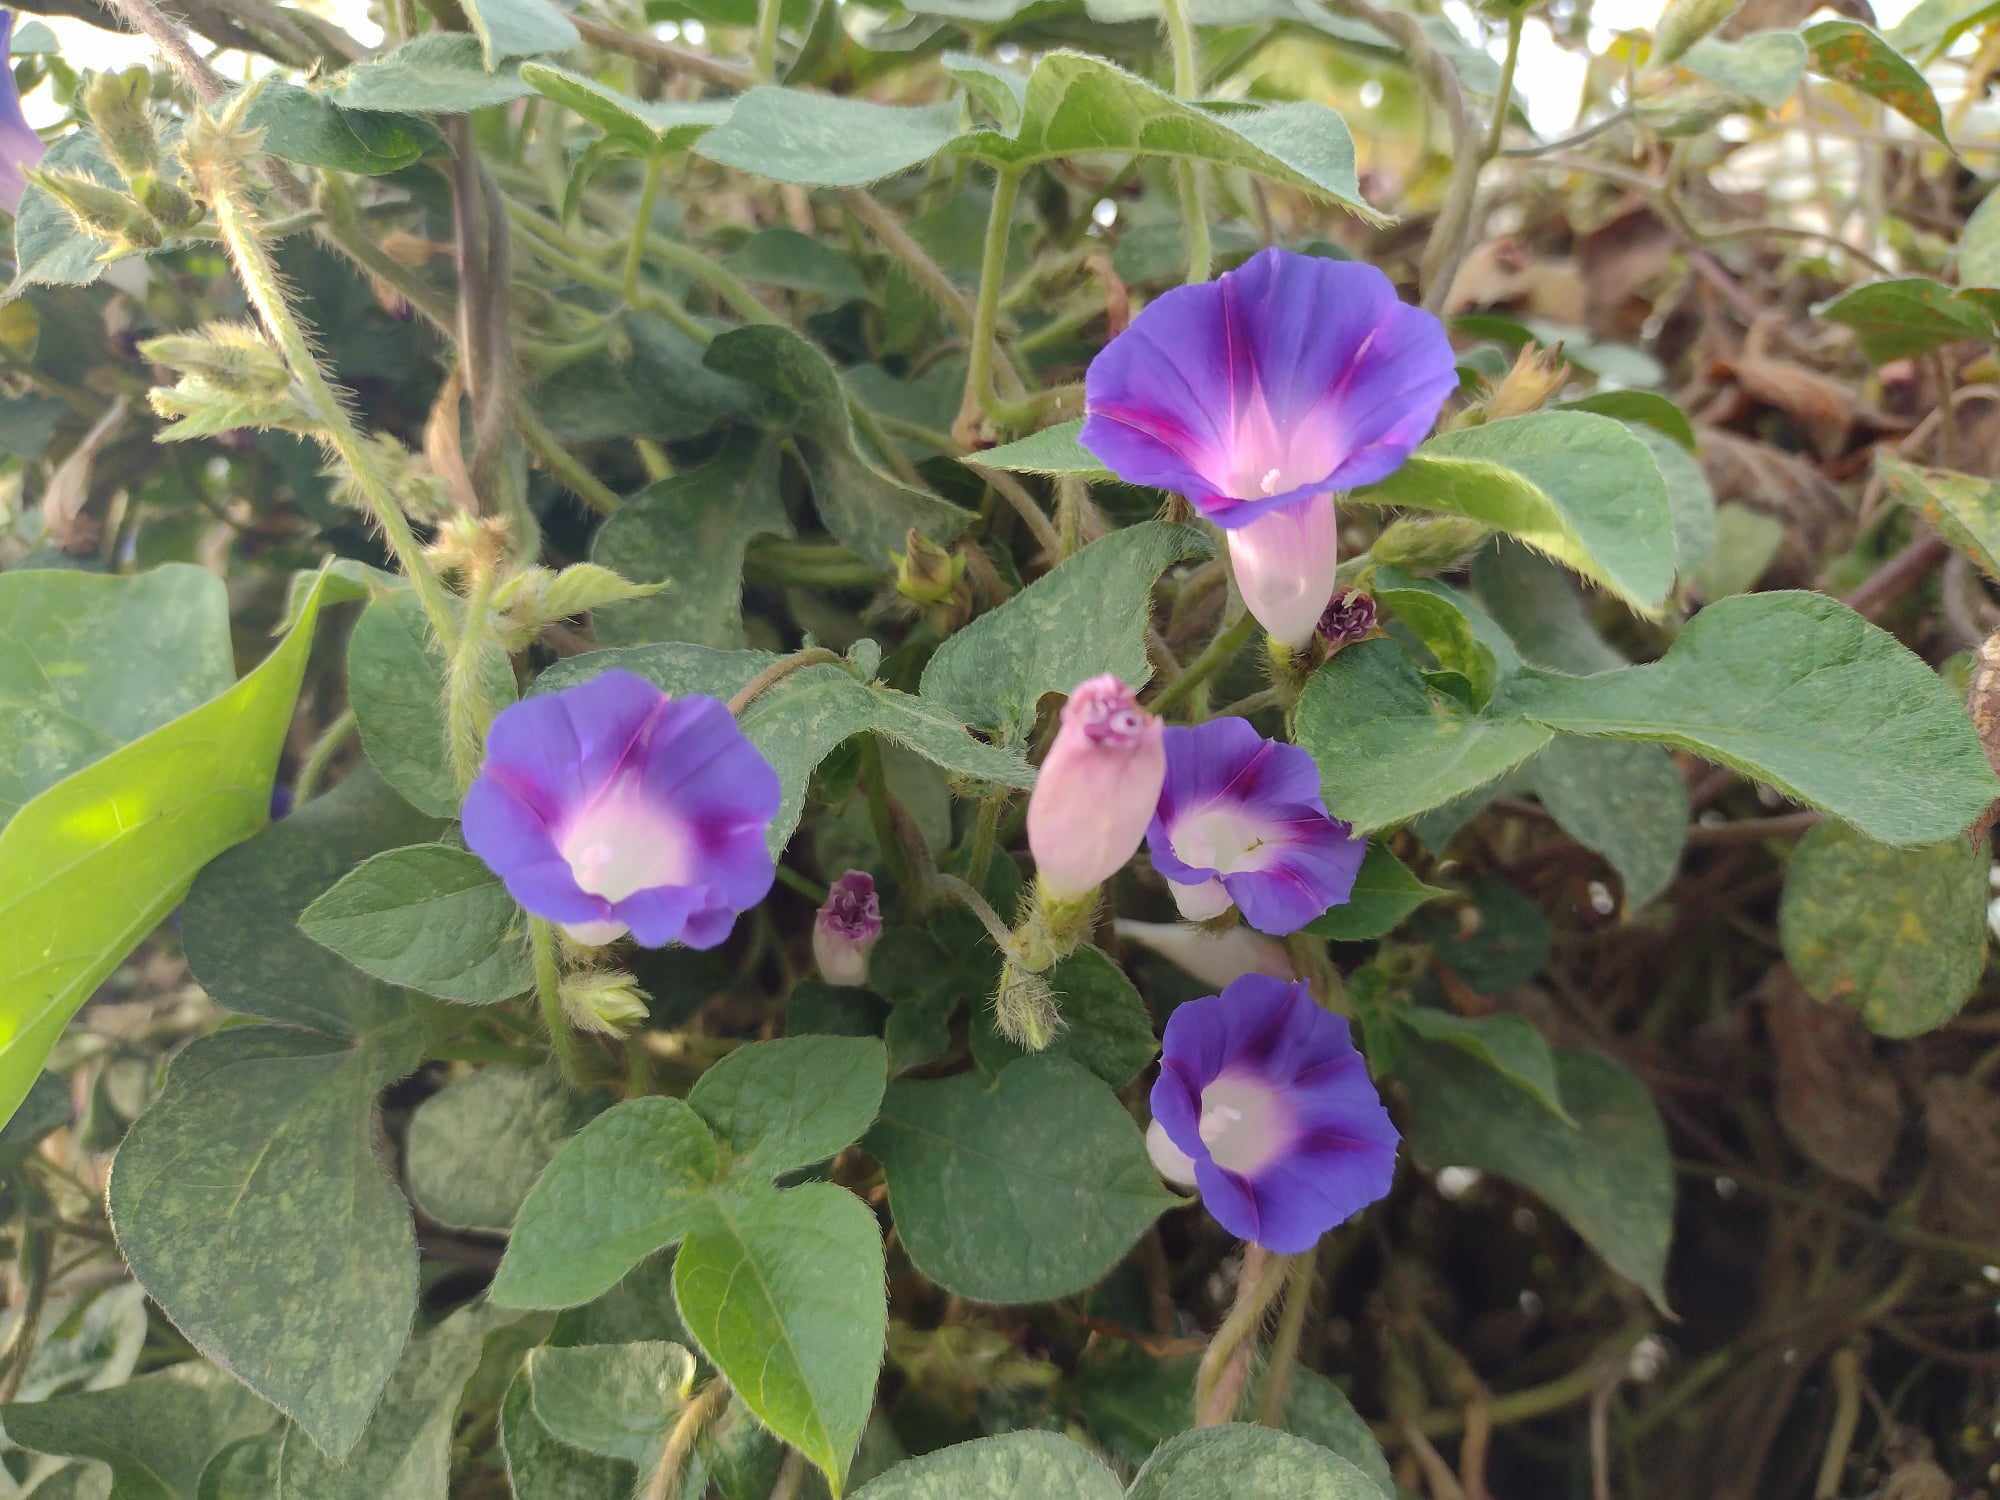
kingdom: Plantae
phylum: Tracheophyta
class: Magnoliopsida
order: Solanales
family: Convolvulaceae
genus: Ipomoea
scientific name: Ipomoea purpurea
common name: Common morning-glory
